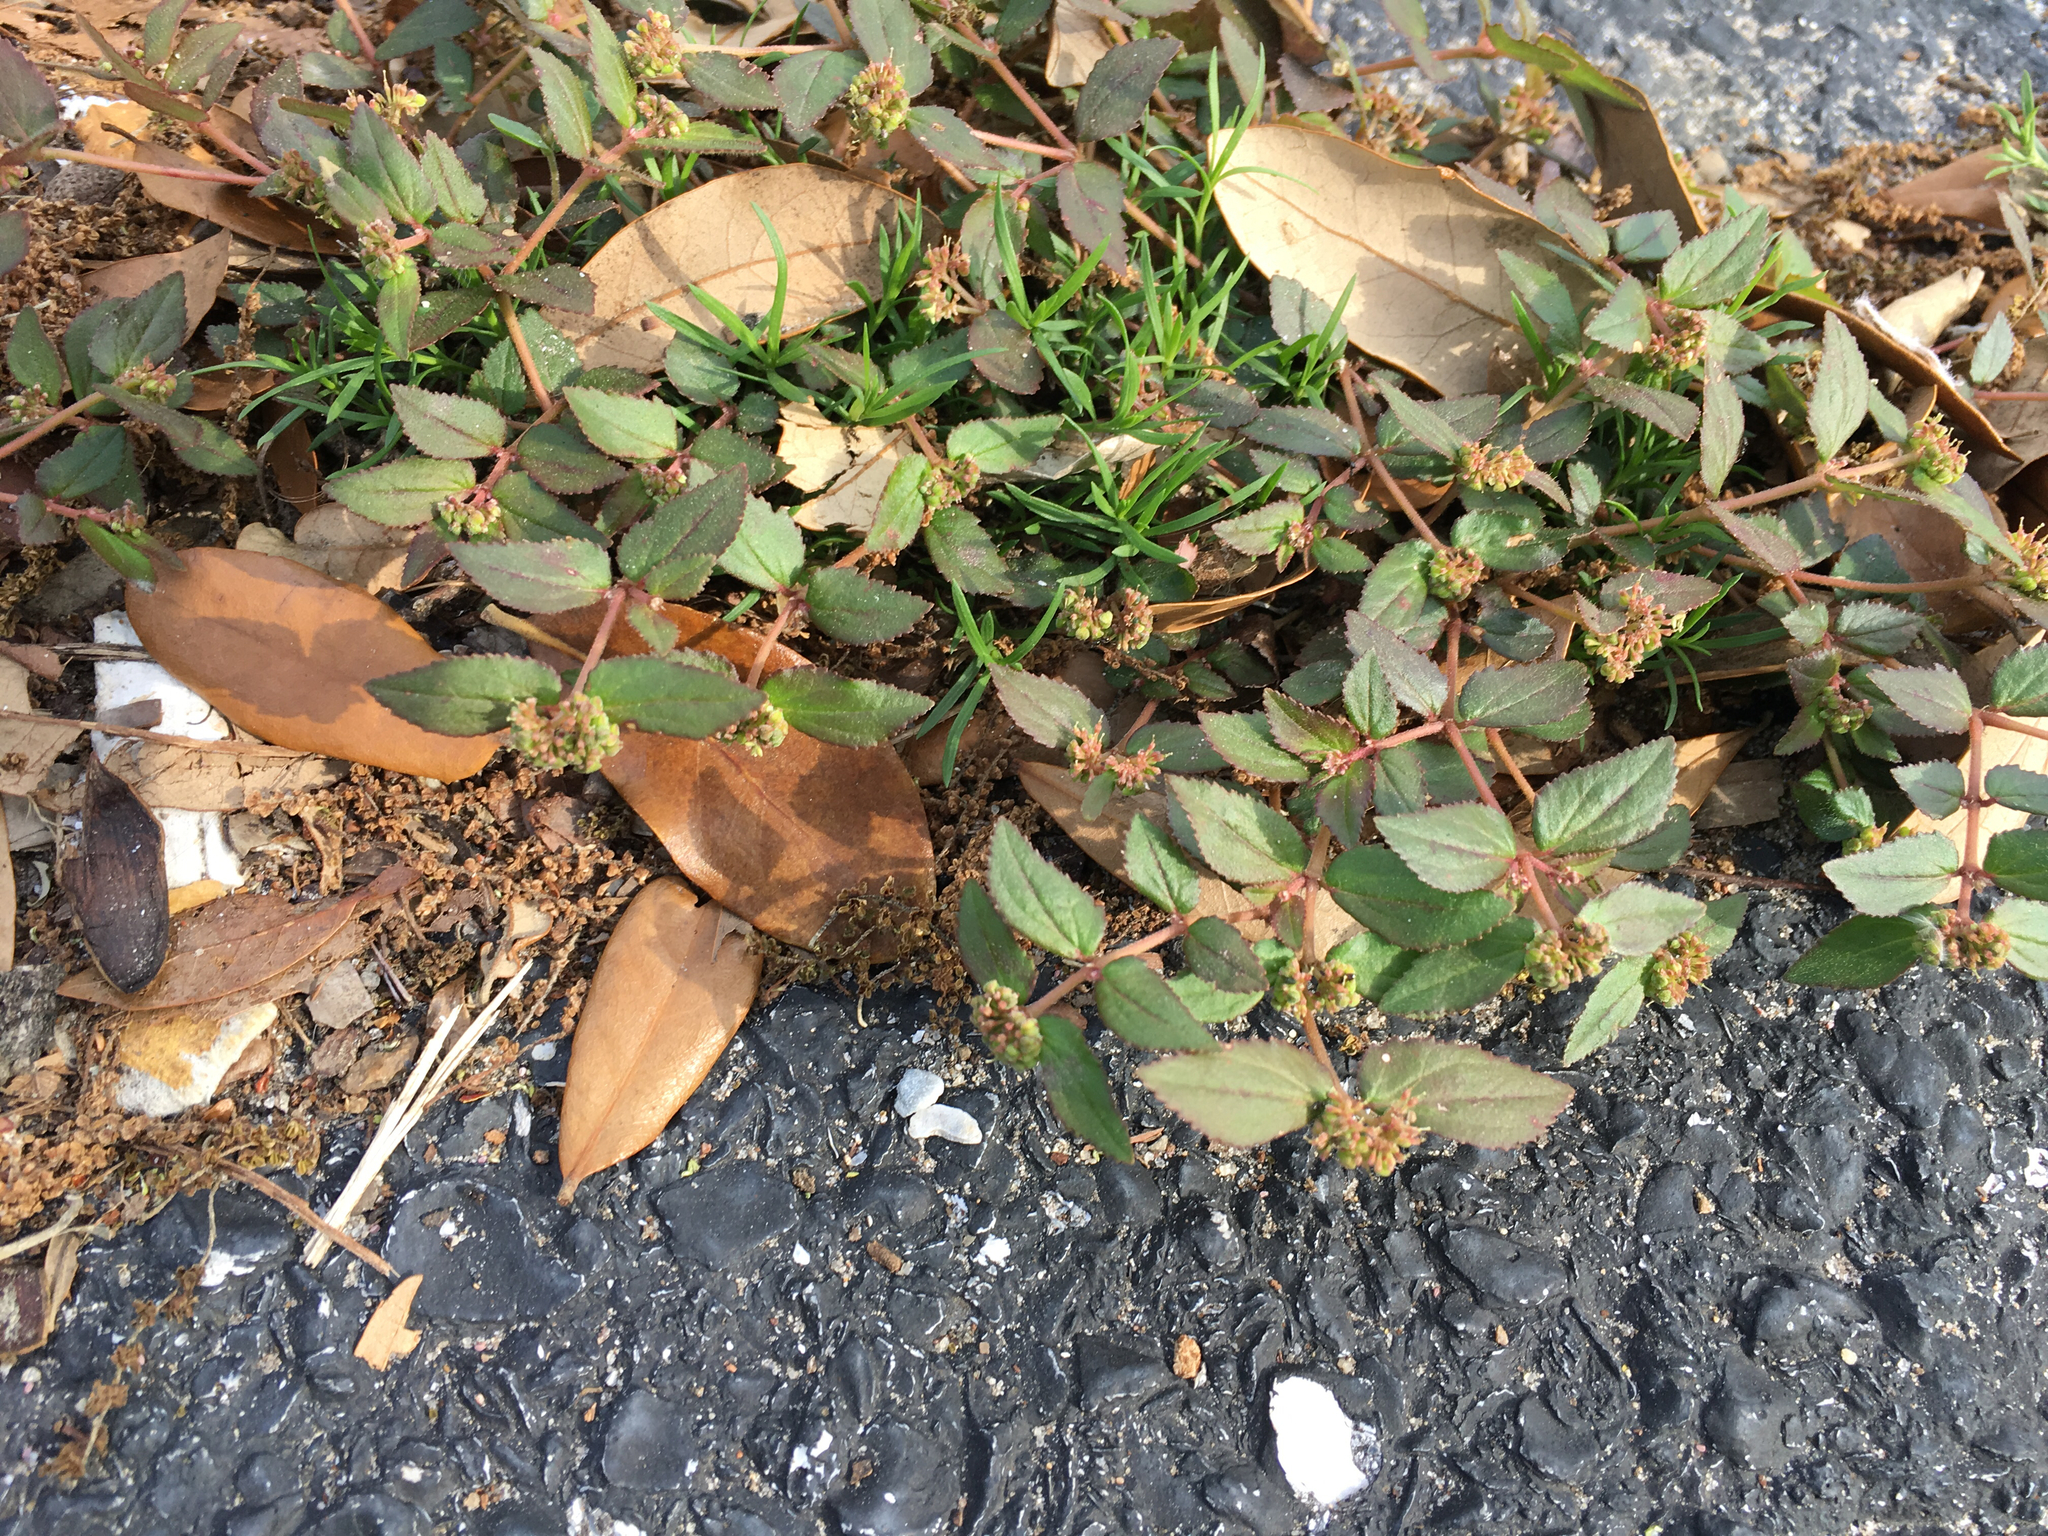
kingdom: Plantae
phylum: Tracheophyta
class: Magnoliopsida
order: Malpighiales
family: Euphorbiaceae
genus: Euphorbia
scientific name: Euphorbia ophthalmica
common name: Florida hammock sandmat
